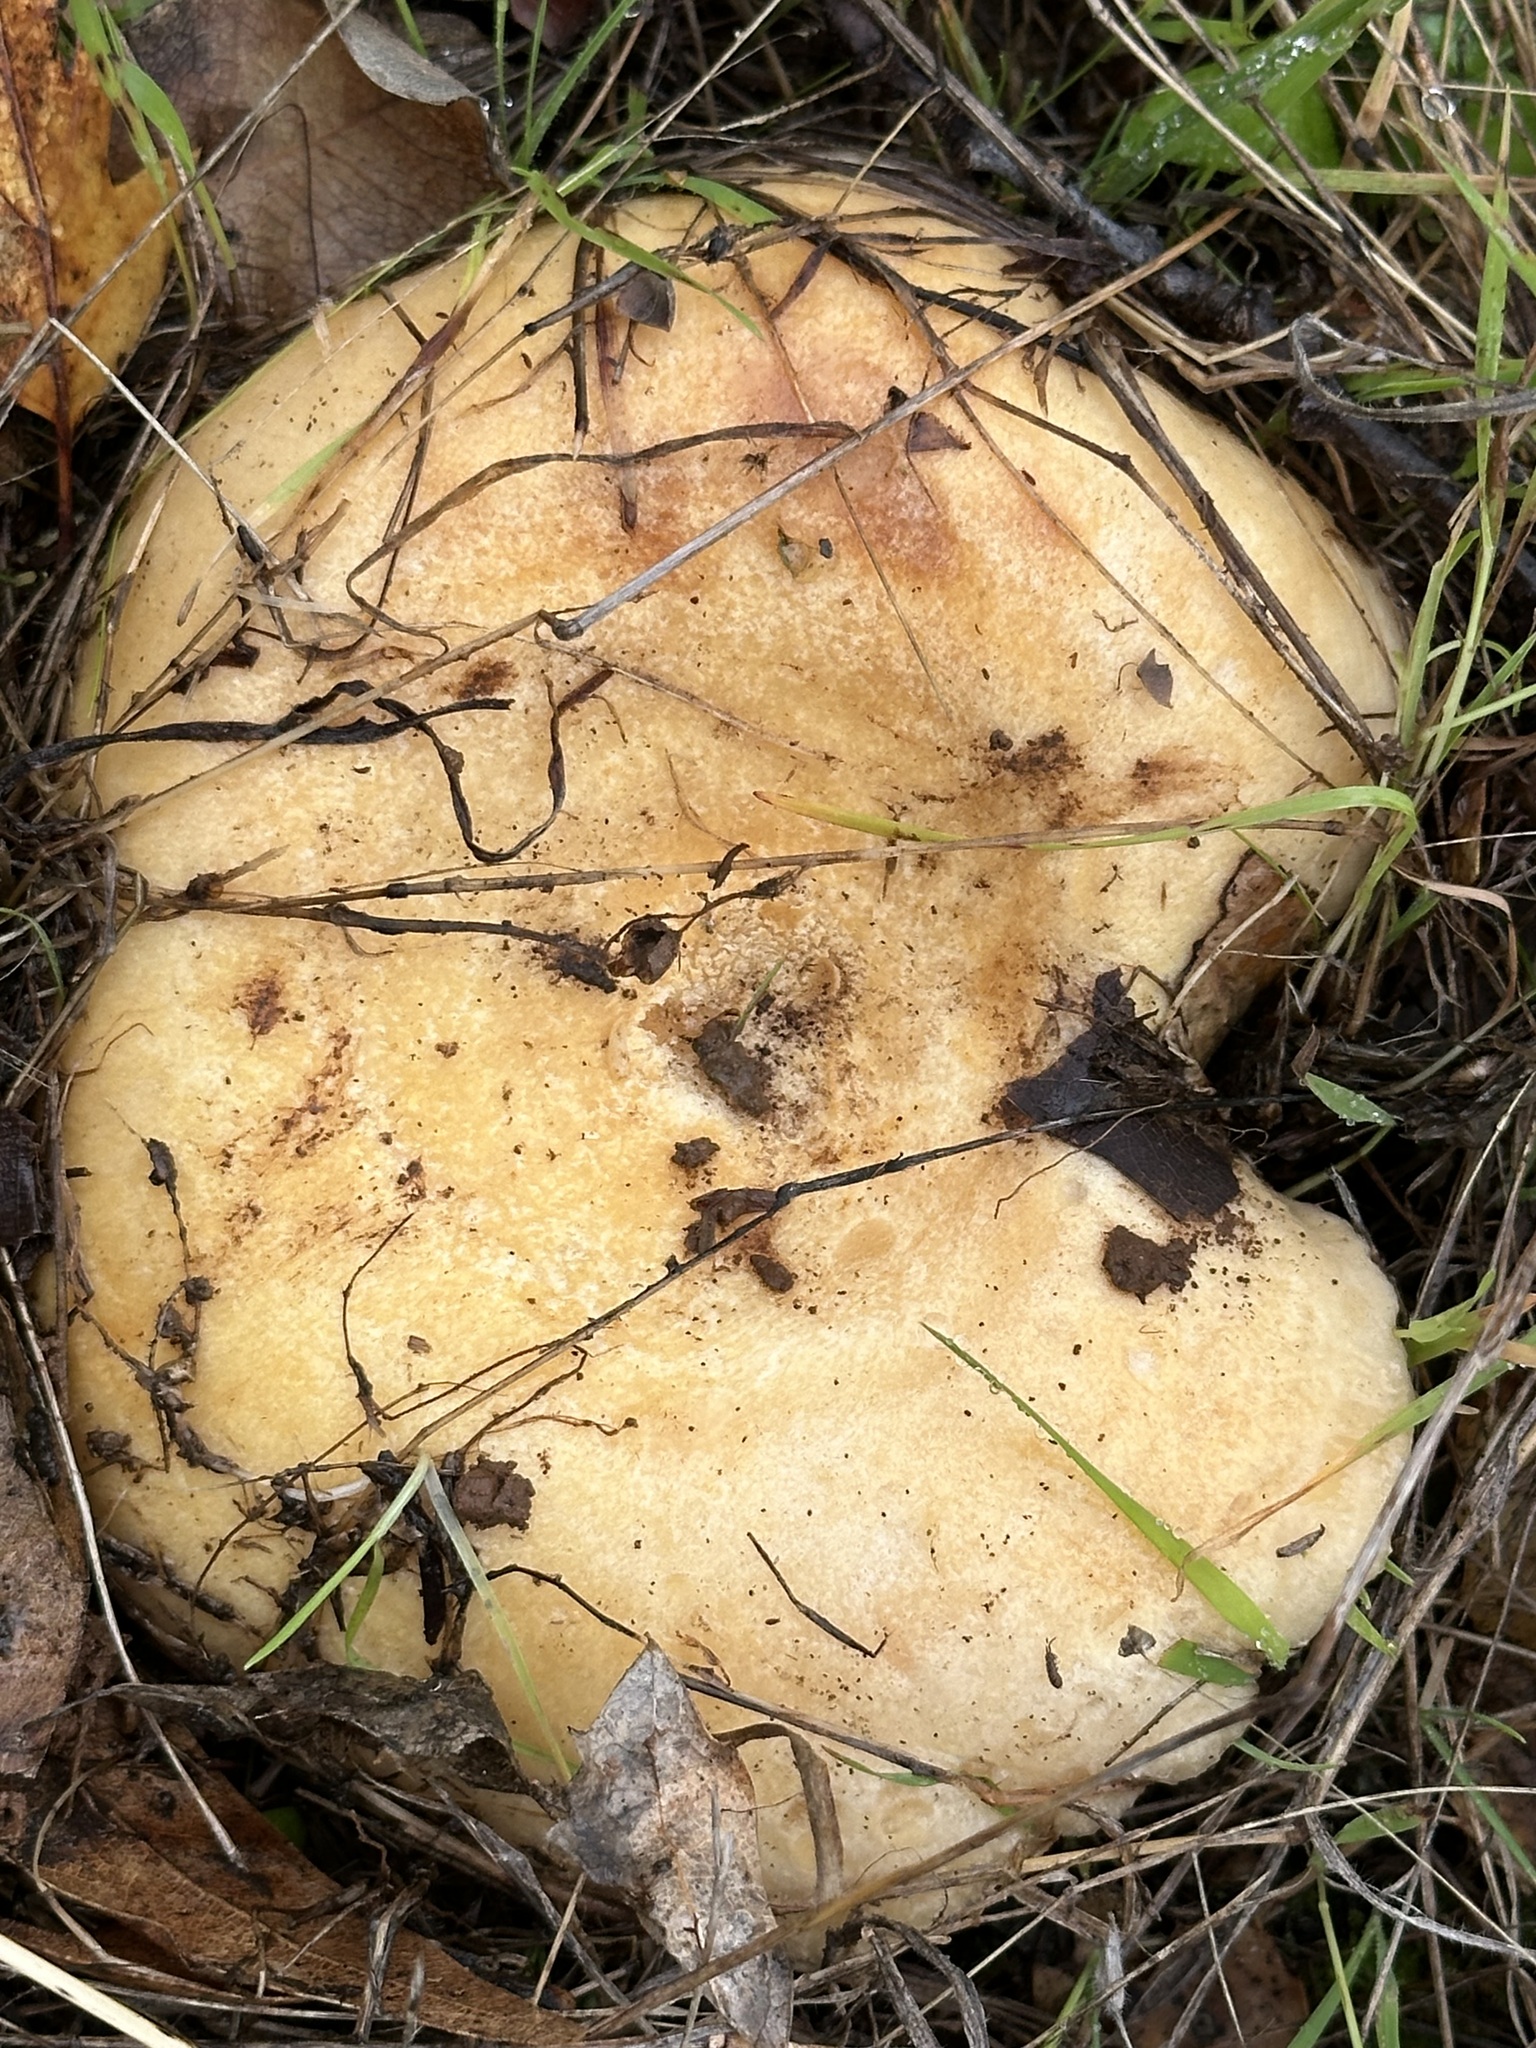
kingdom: Fungi
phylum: Basidiomycota
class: Agaricomycetes
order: Russulales
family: Russulaceae
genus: Lactarius
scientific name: Lactarius alnicola
